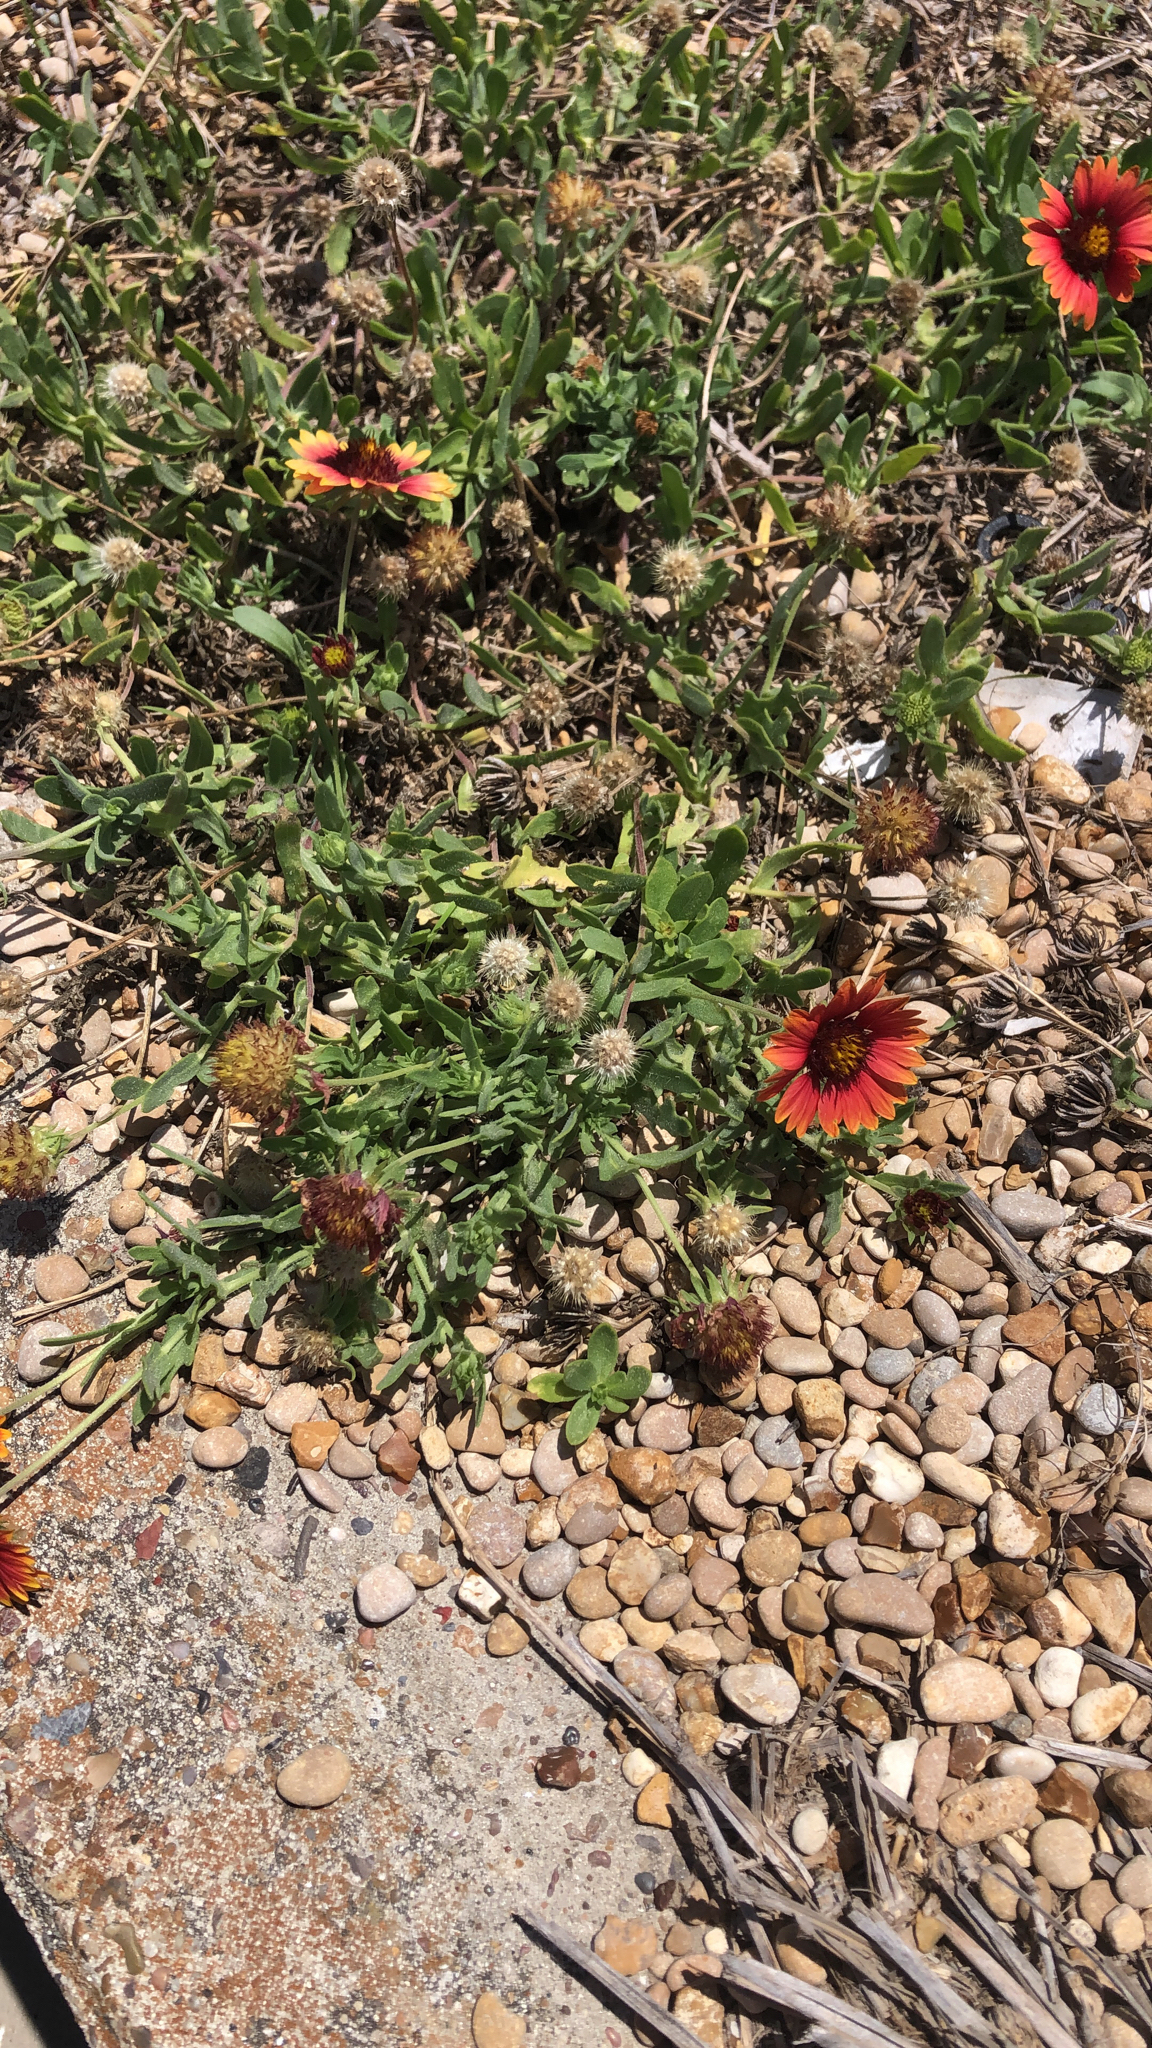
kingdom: Plantae
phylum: Tracheophyta
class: Magnoliopsida
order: Asterales
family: Asteraceae
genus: Gaillardia
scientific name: Gaillardia pulchella
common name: Firewheel
